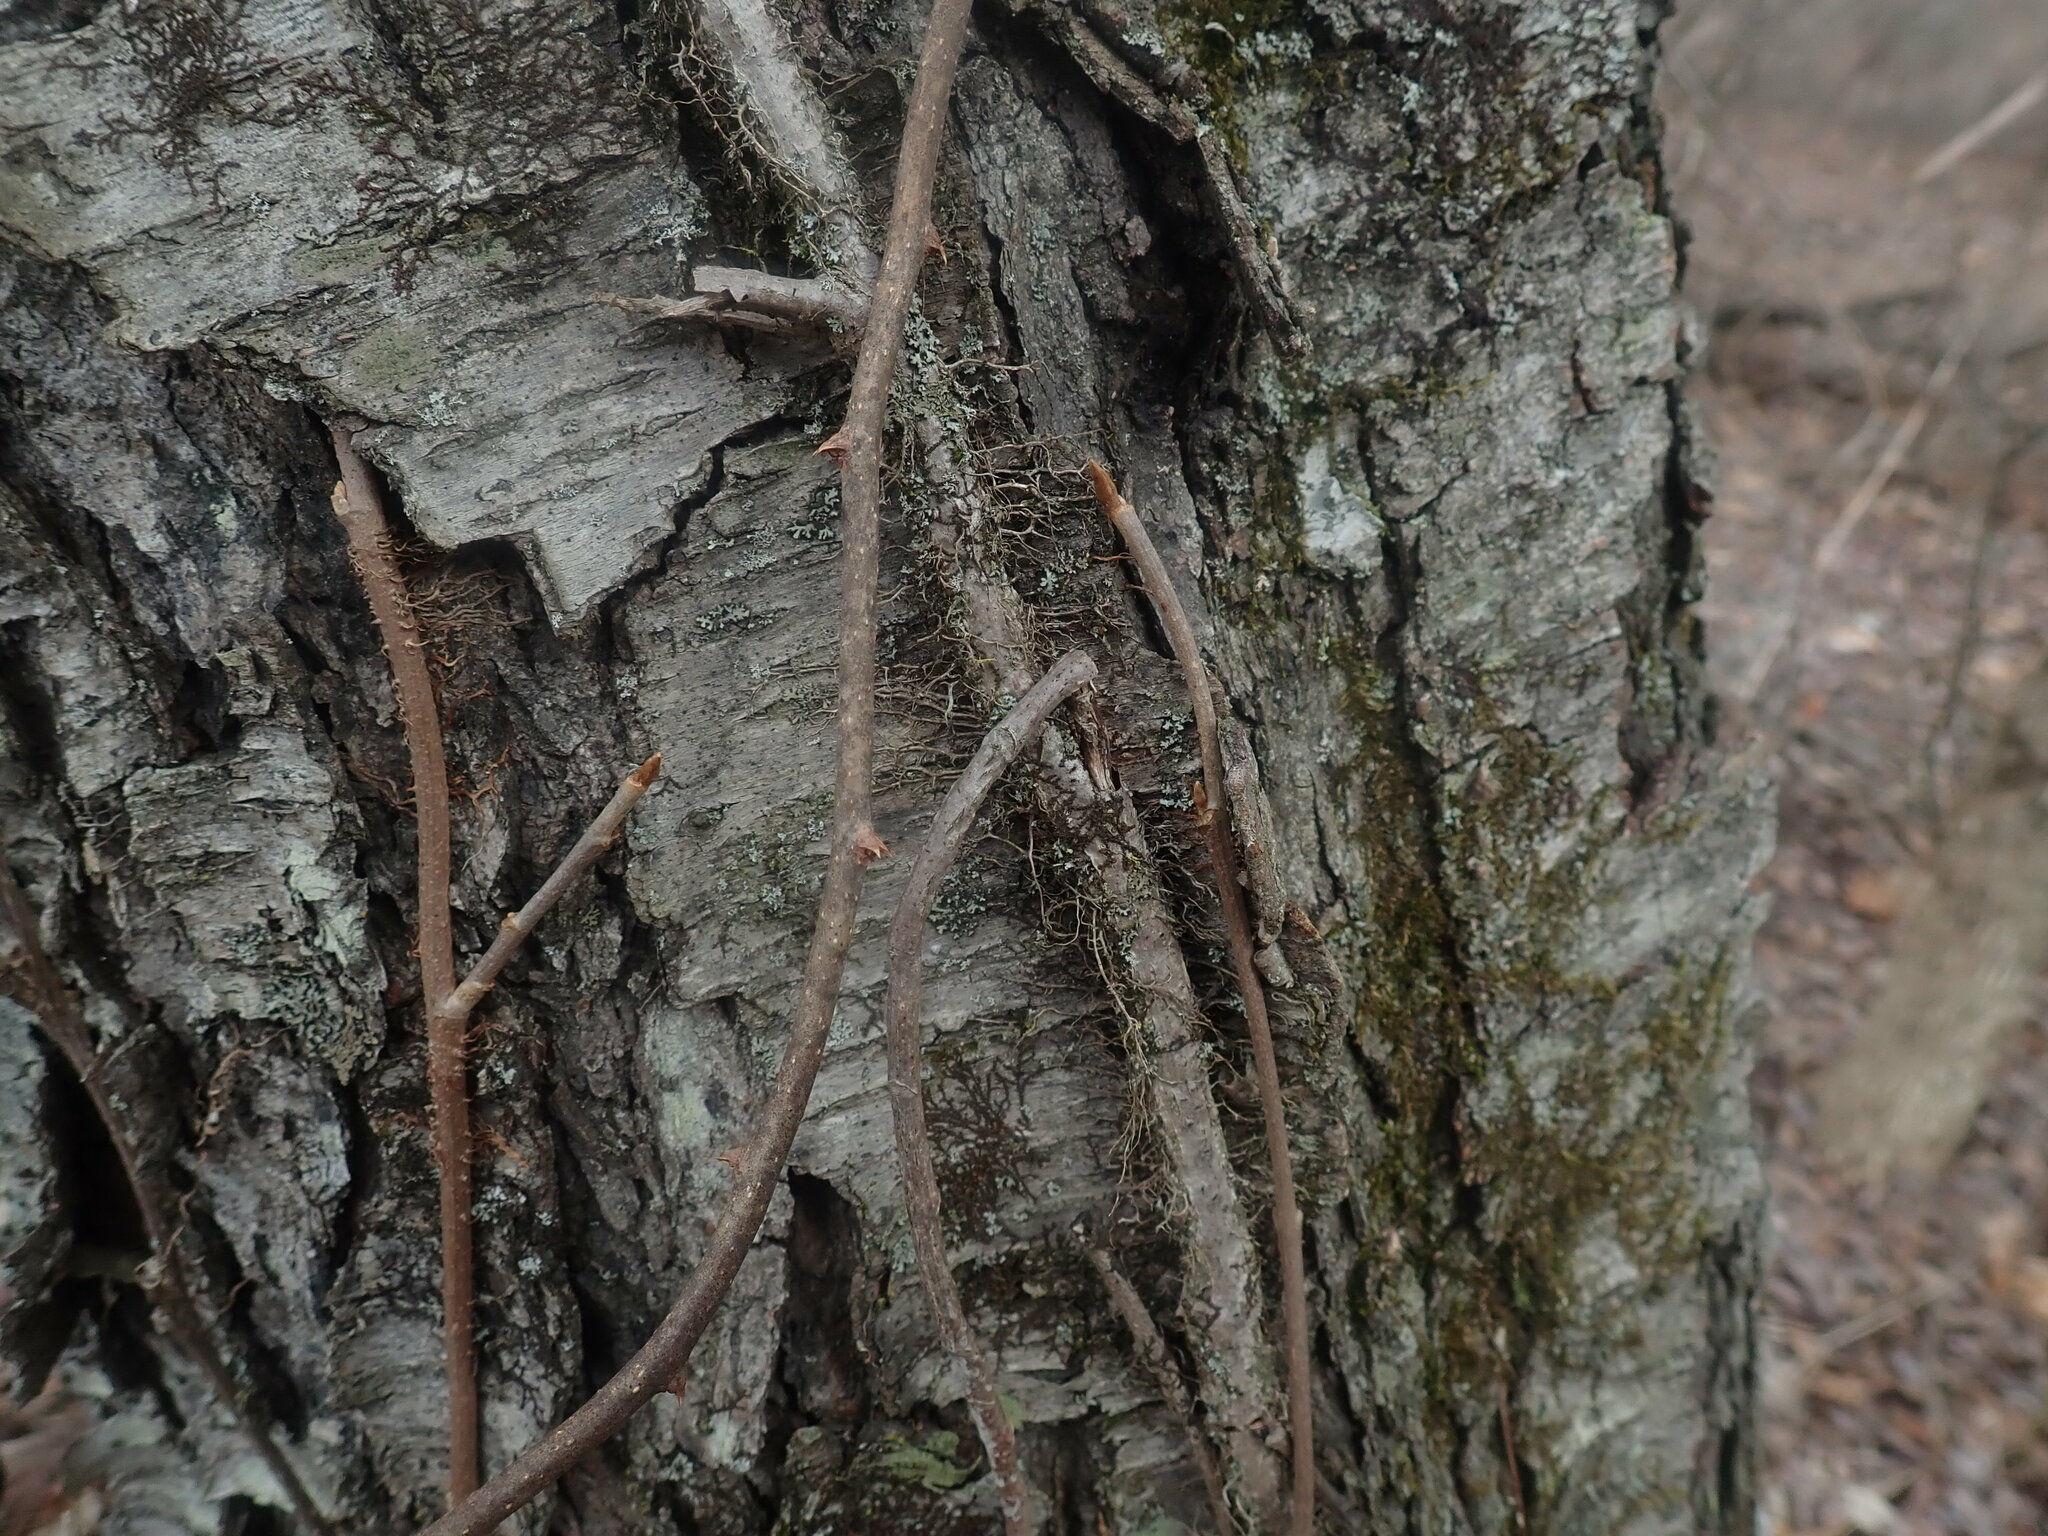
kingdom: Plantae
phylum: Tracheophyta
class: Magnoliopsida
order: Sapindales
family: Anacardiaceae
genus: Toxicodendron
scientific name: Toxicodendron radicans
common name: Poison ivy
